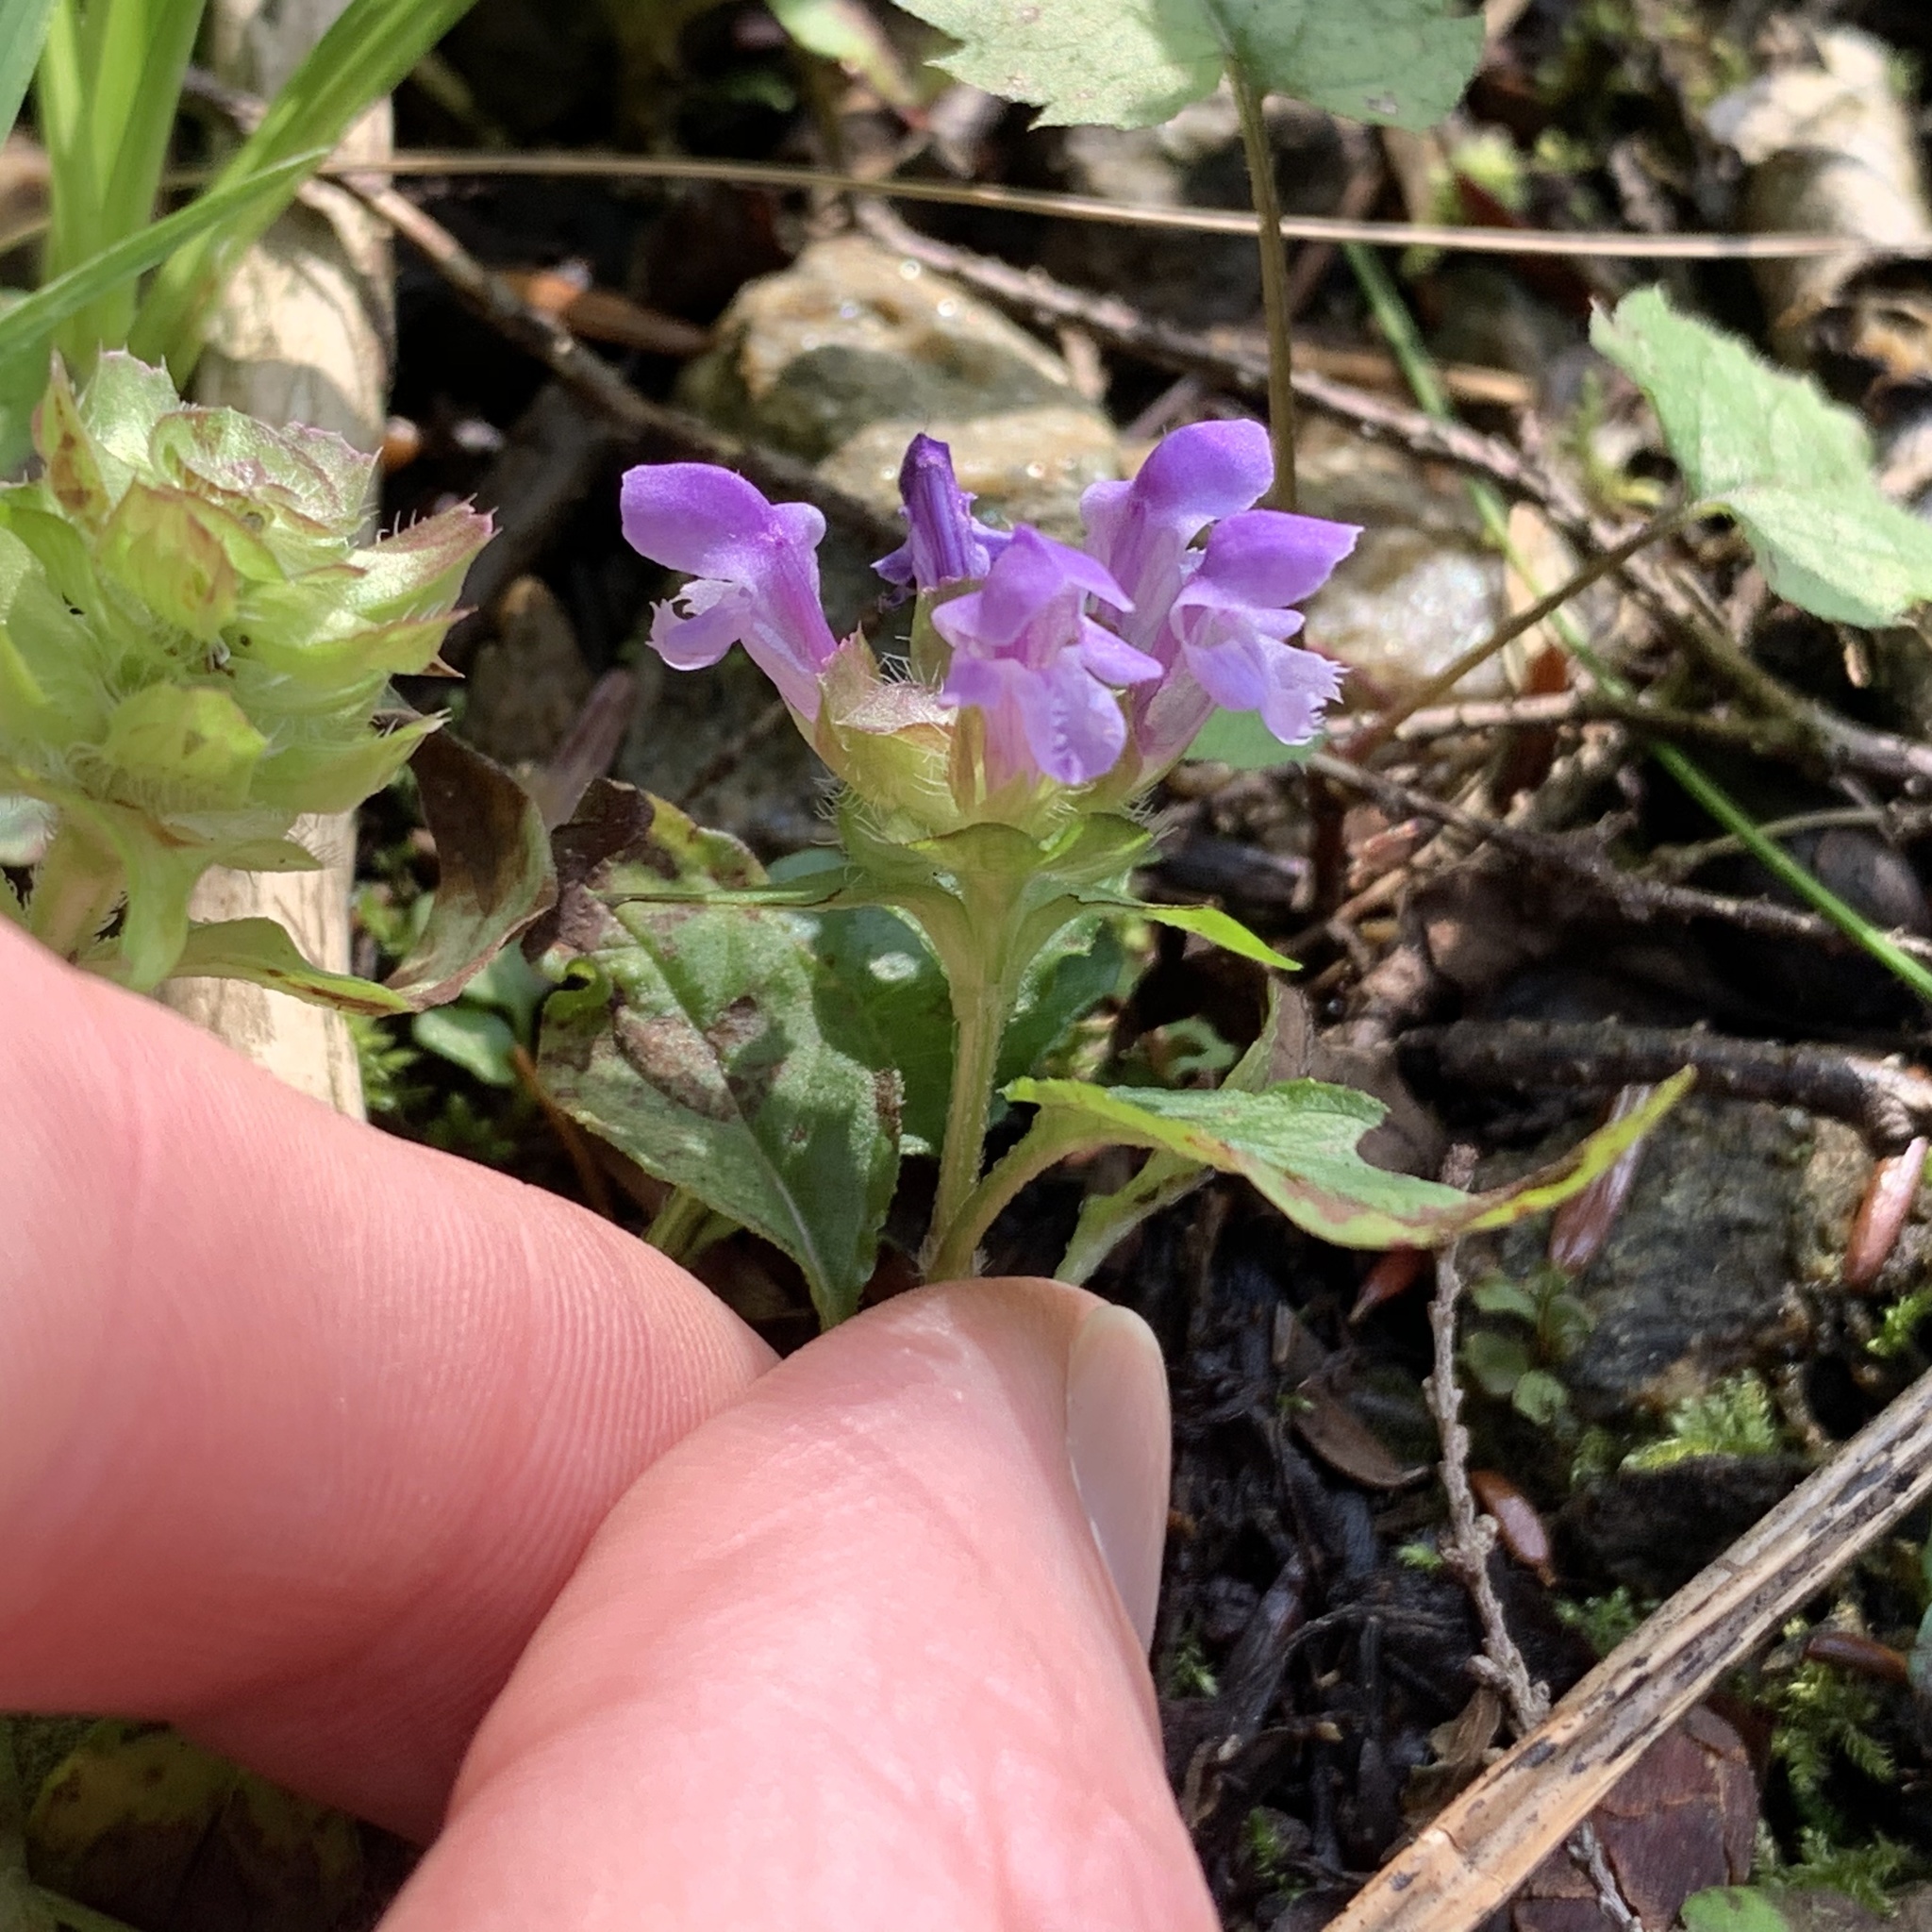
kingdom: Plantae
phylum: Tracheophyta
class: Magnoliopsida
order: Lamiales
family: Lamiaceae
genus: Prunella
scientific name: Prunella vulgaris
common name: Heal-all
